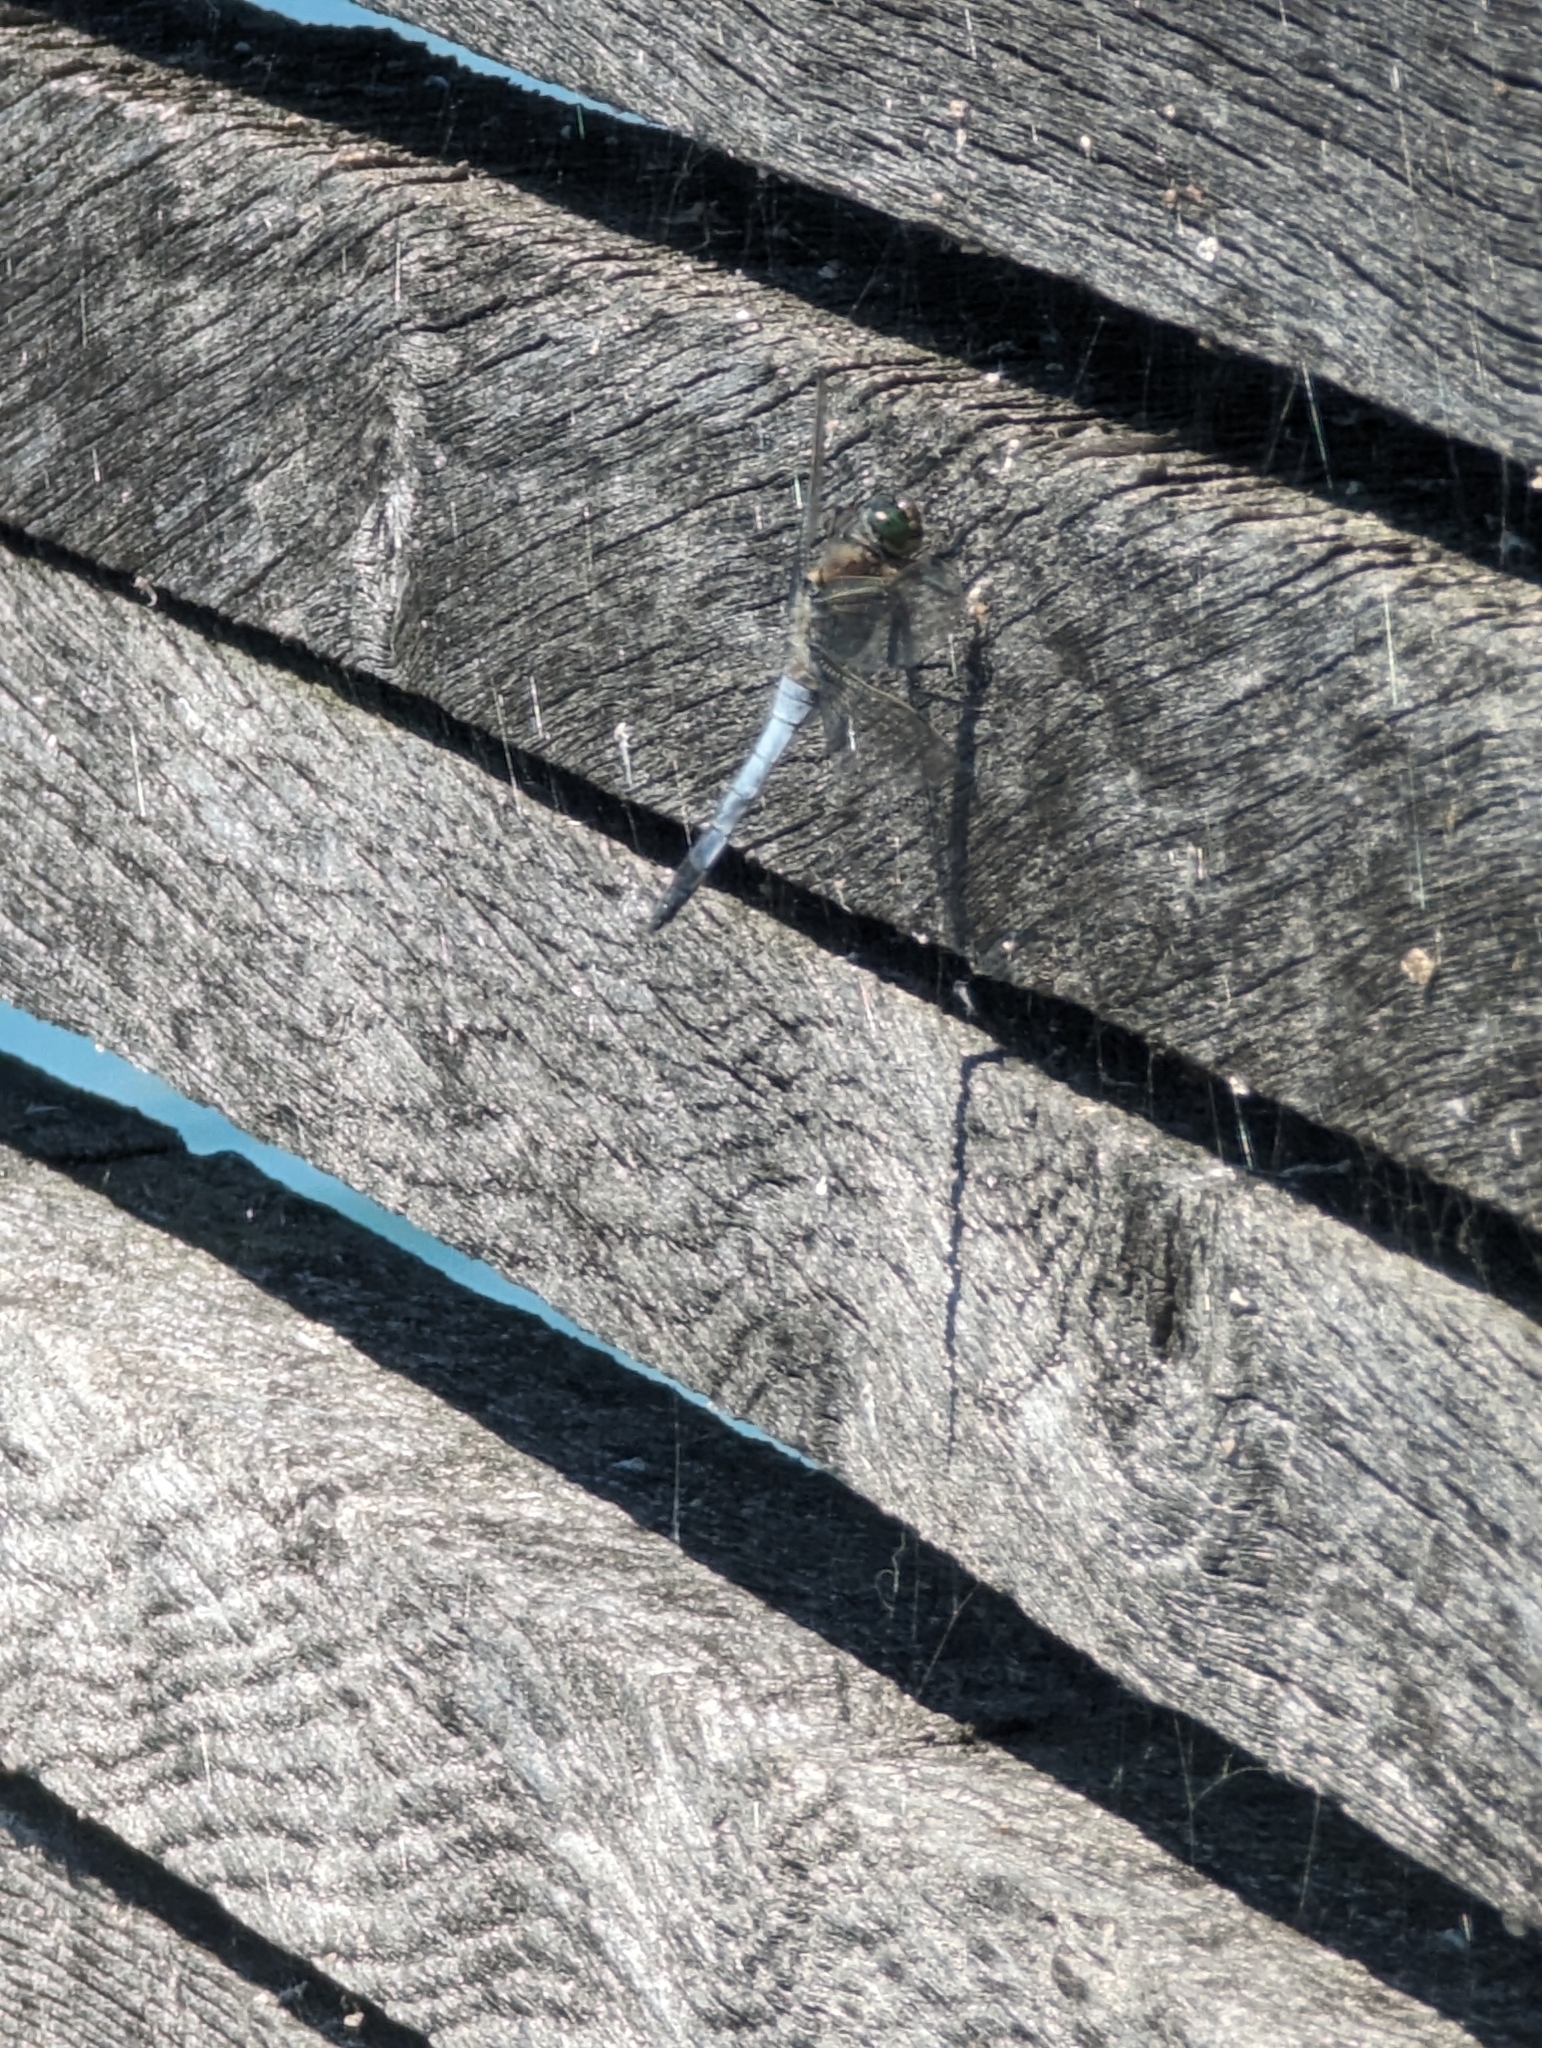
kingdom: Animalia
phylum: Arthropoda
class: Insecta
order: Odonata
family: Libellulidae
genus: Orthetrum
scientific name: Orthetrum cancellatum
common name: Black-tailed skimmer
